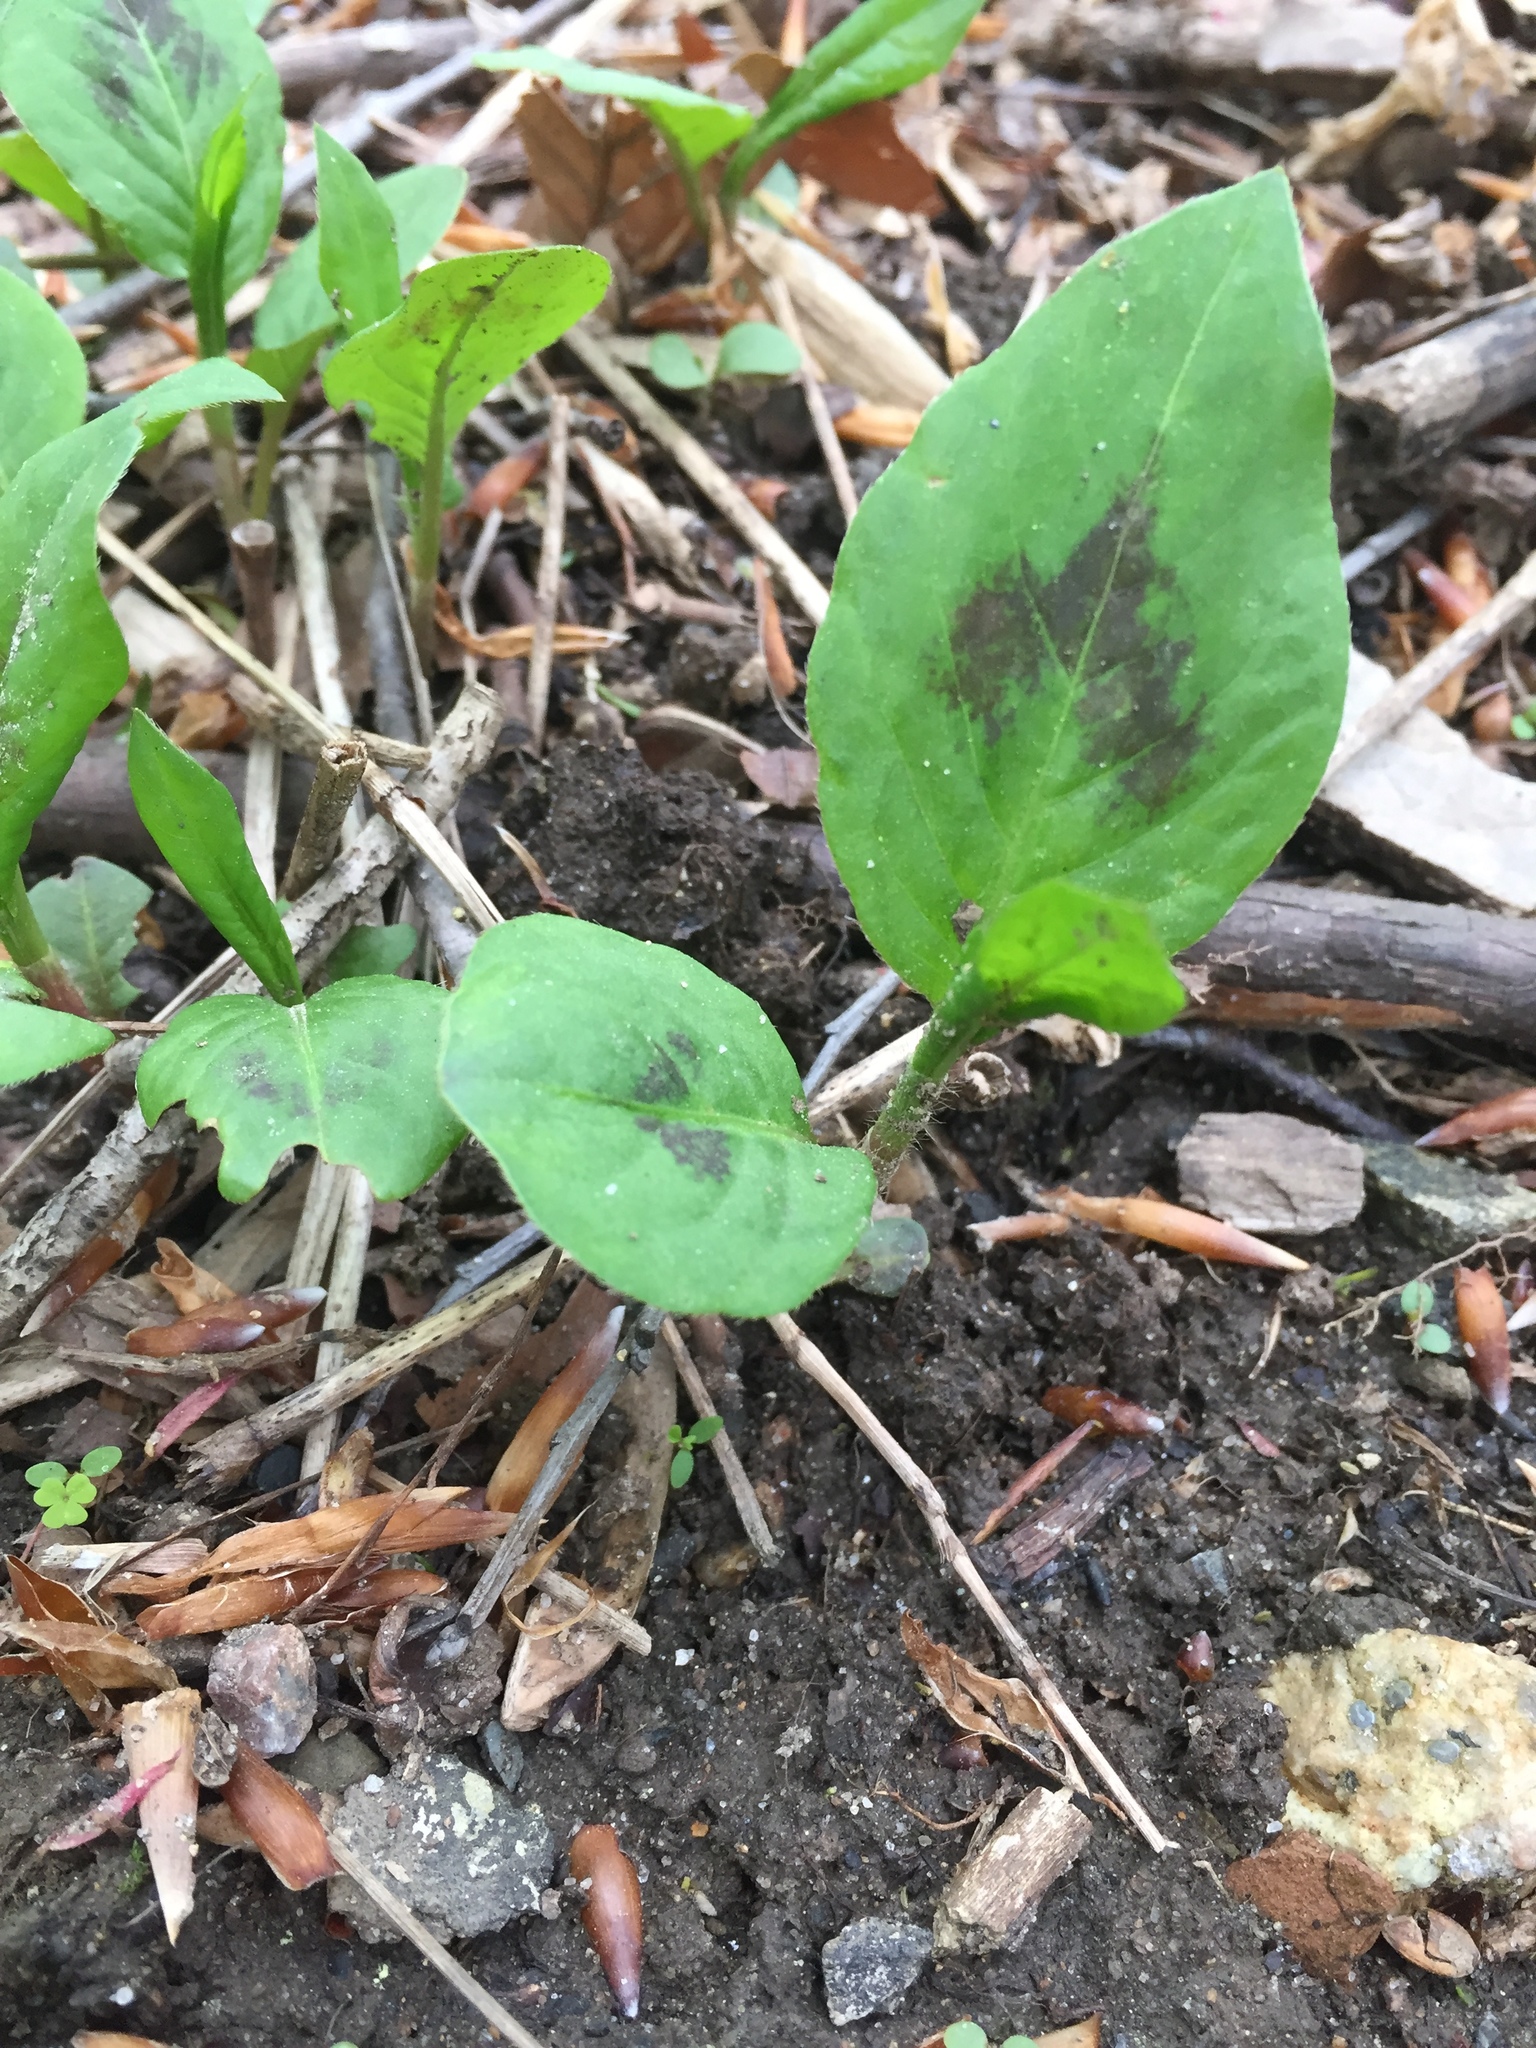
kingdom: Plantae
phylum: Tracheophyta
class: Magnoliopsida
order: Caryophyllales
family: Polygonaceae
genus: Persicaria
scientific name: Persicaria virginiana
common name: Jumpseed
